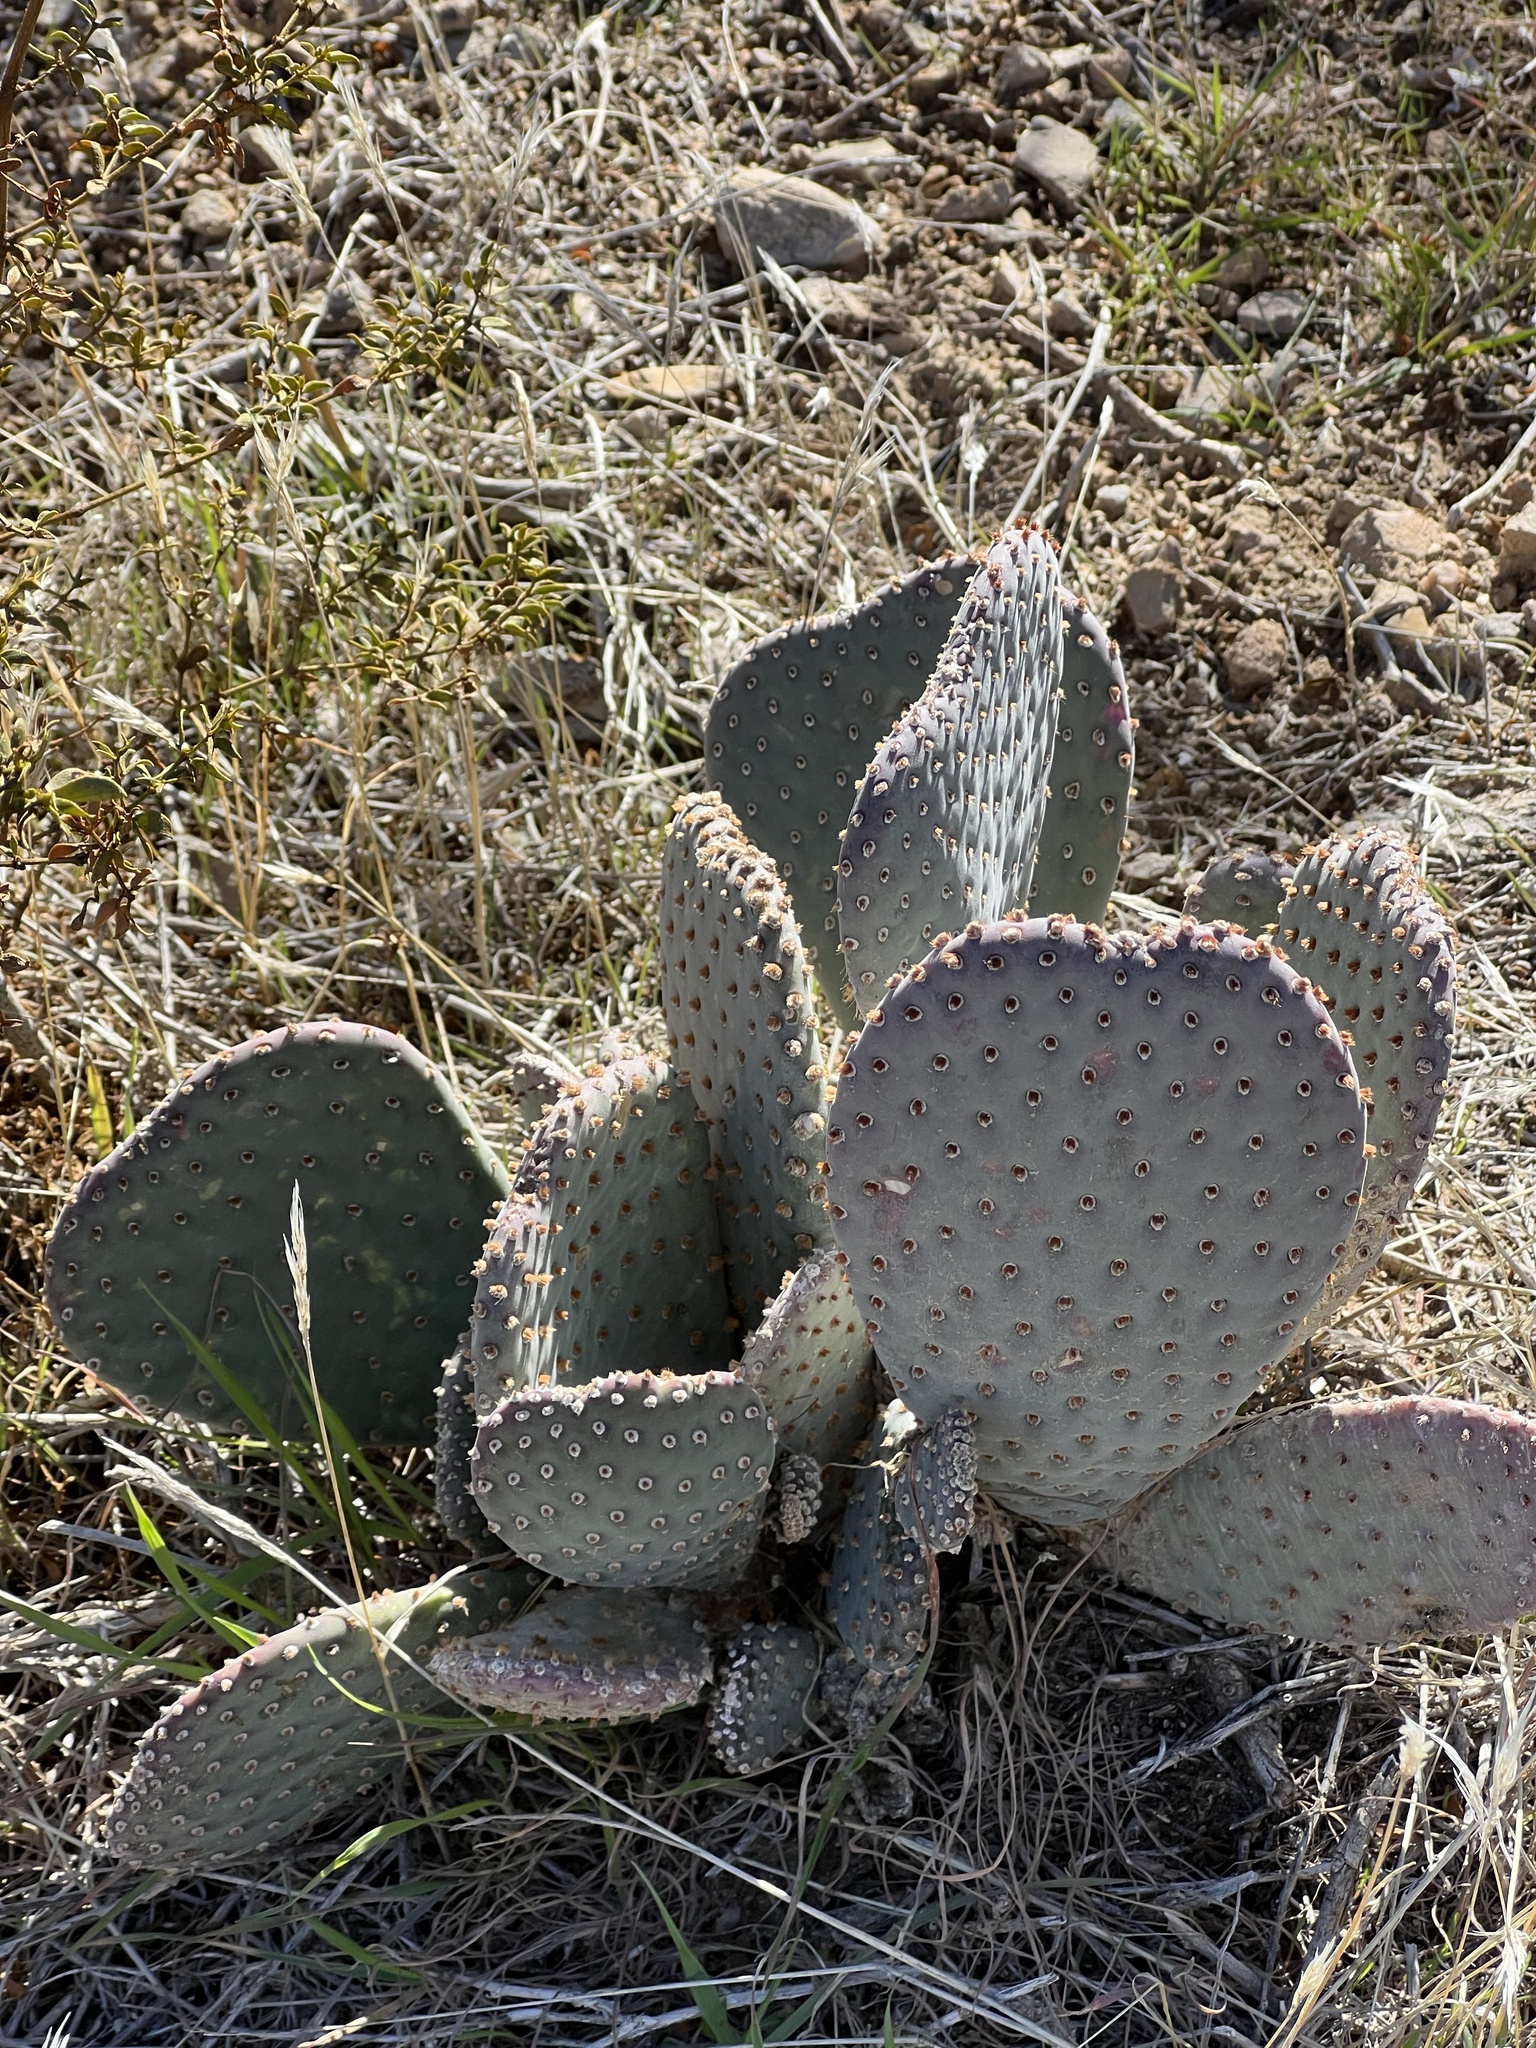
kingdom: Plantae
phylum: Tracheophyta
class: Magnoliopsida
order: Caryophyllales
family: Cactaceae
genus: Opuntia
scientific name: Opuntia basilaris
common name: Beavertail prickly-pear
